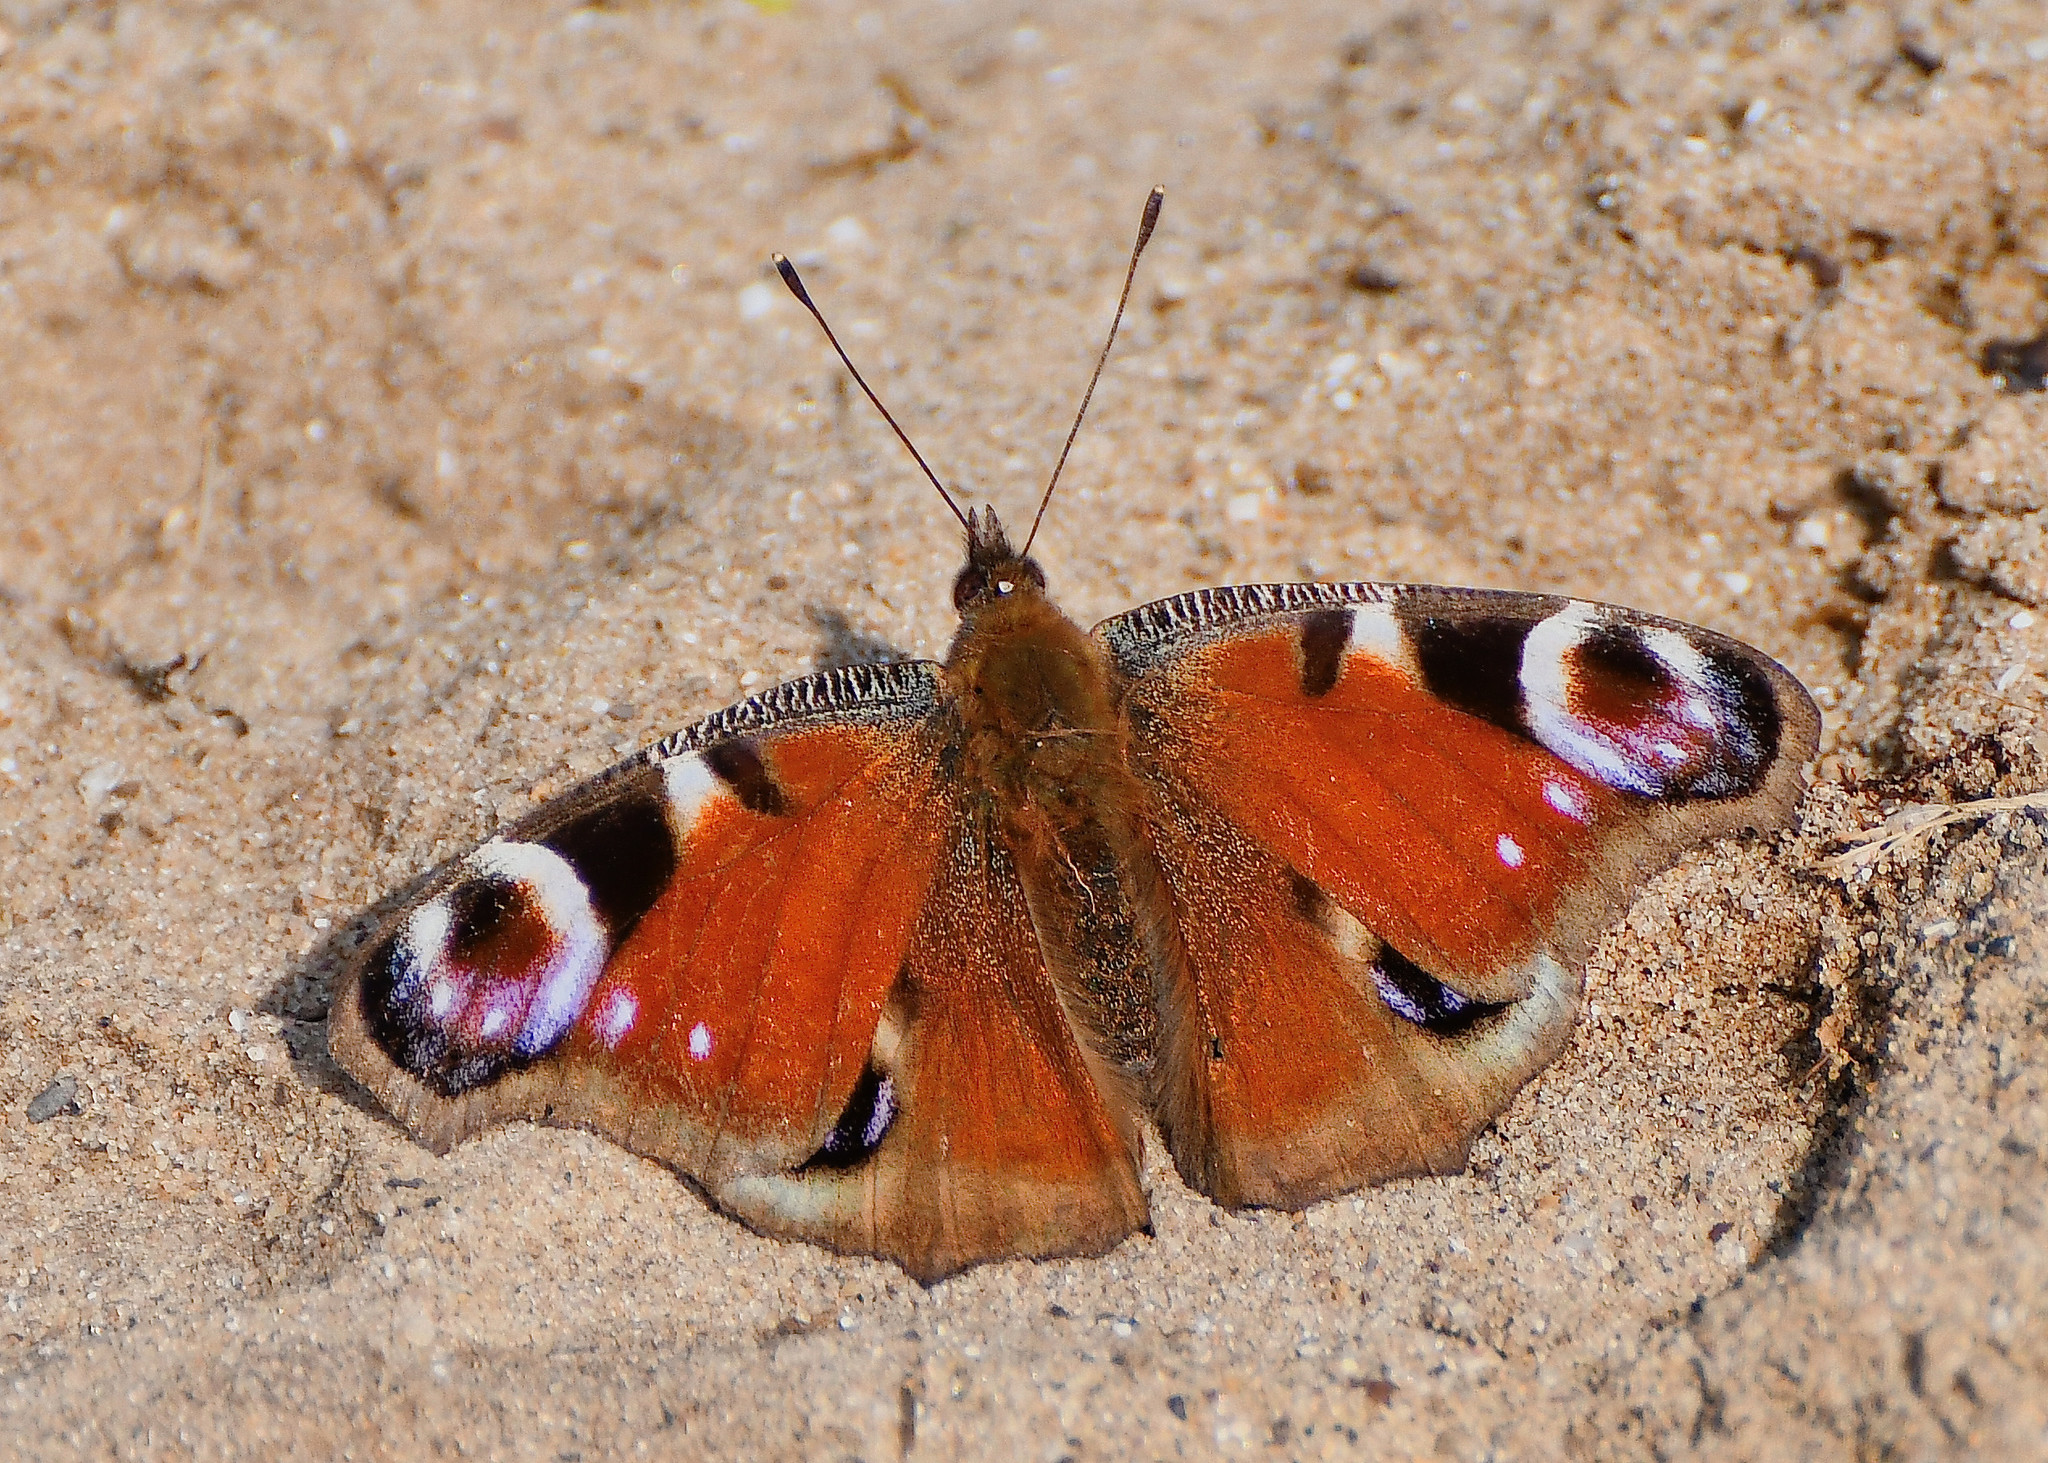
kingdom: Animalia
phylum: Arthropoda
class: Insecta
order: Lepidoptera
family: Nymphalidae
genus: Aglais
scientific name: Aglais io
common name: Peacock
